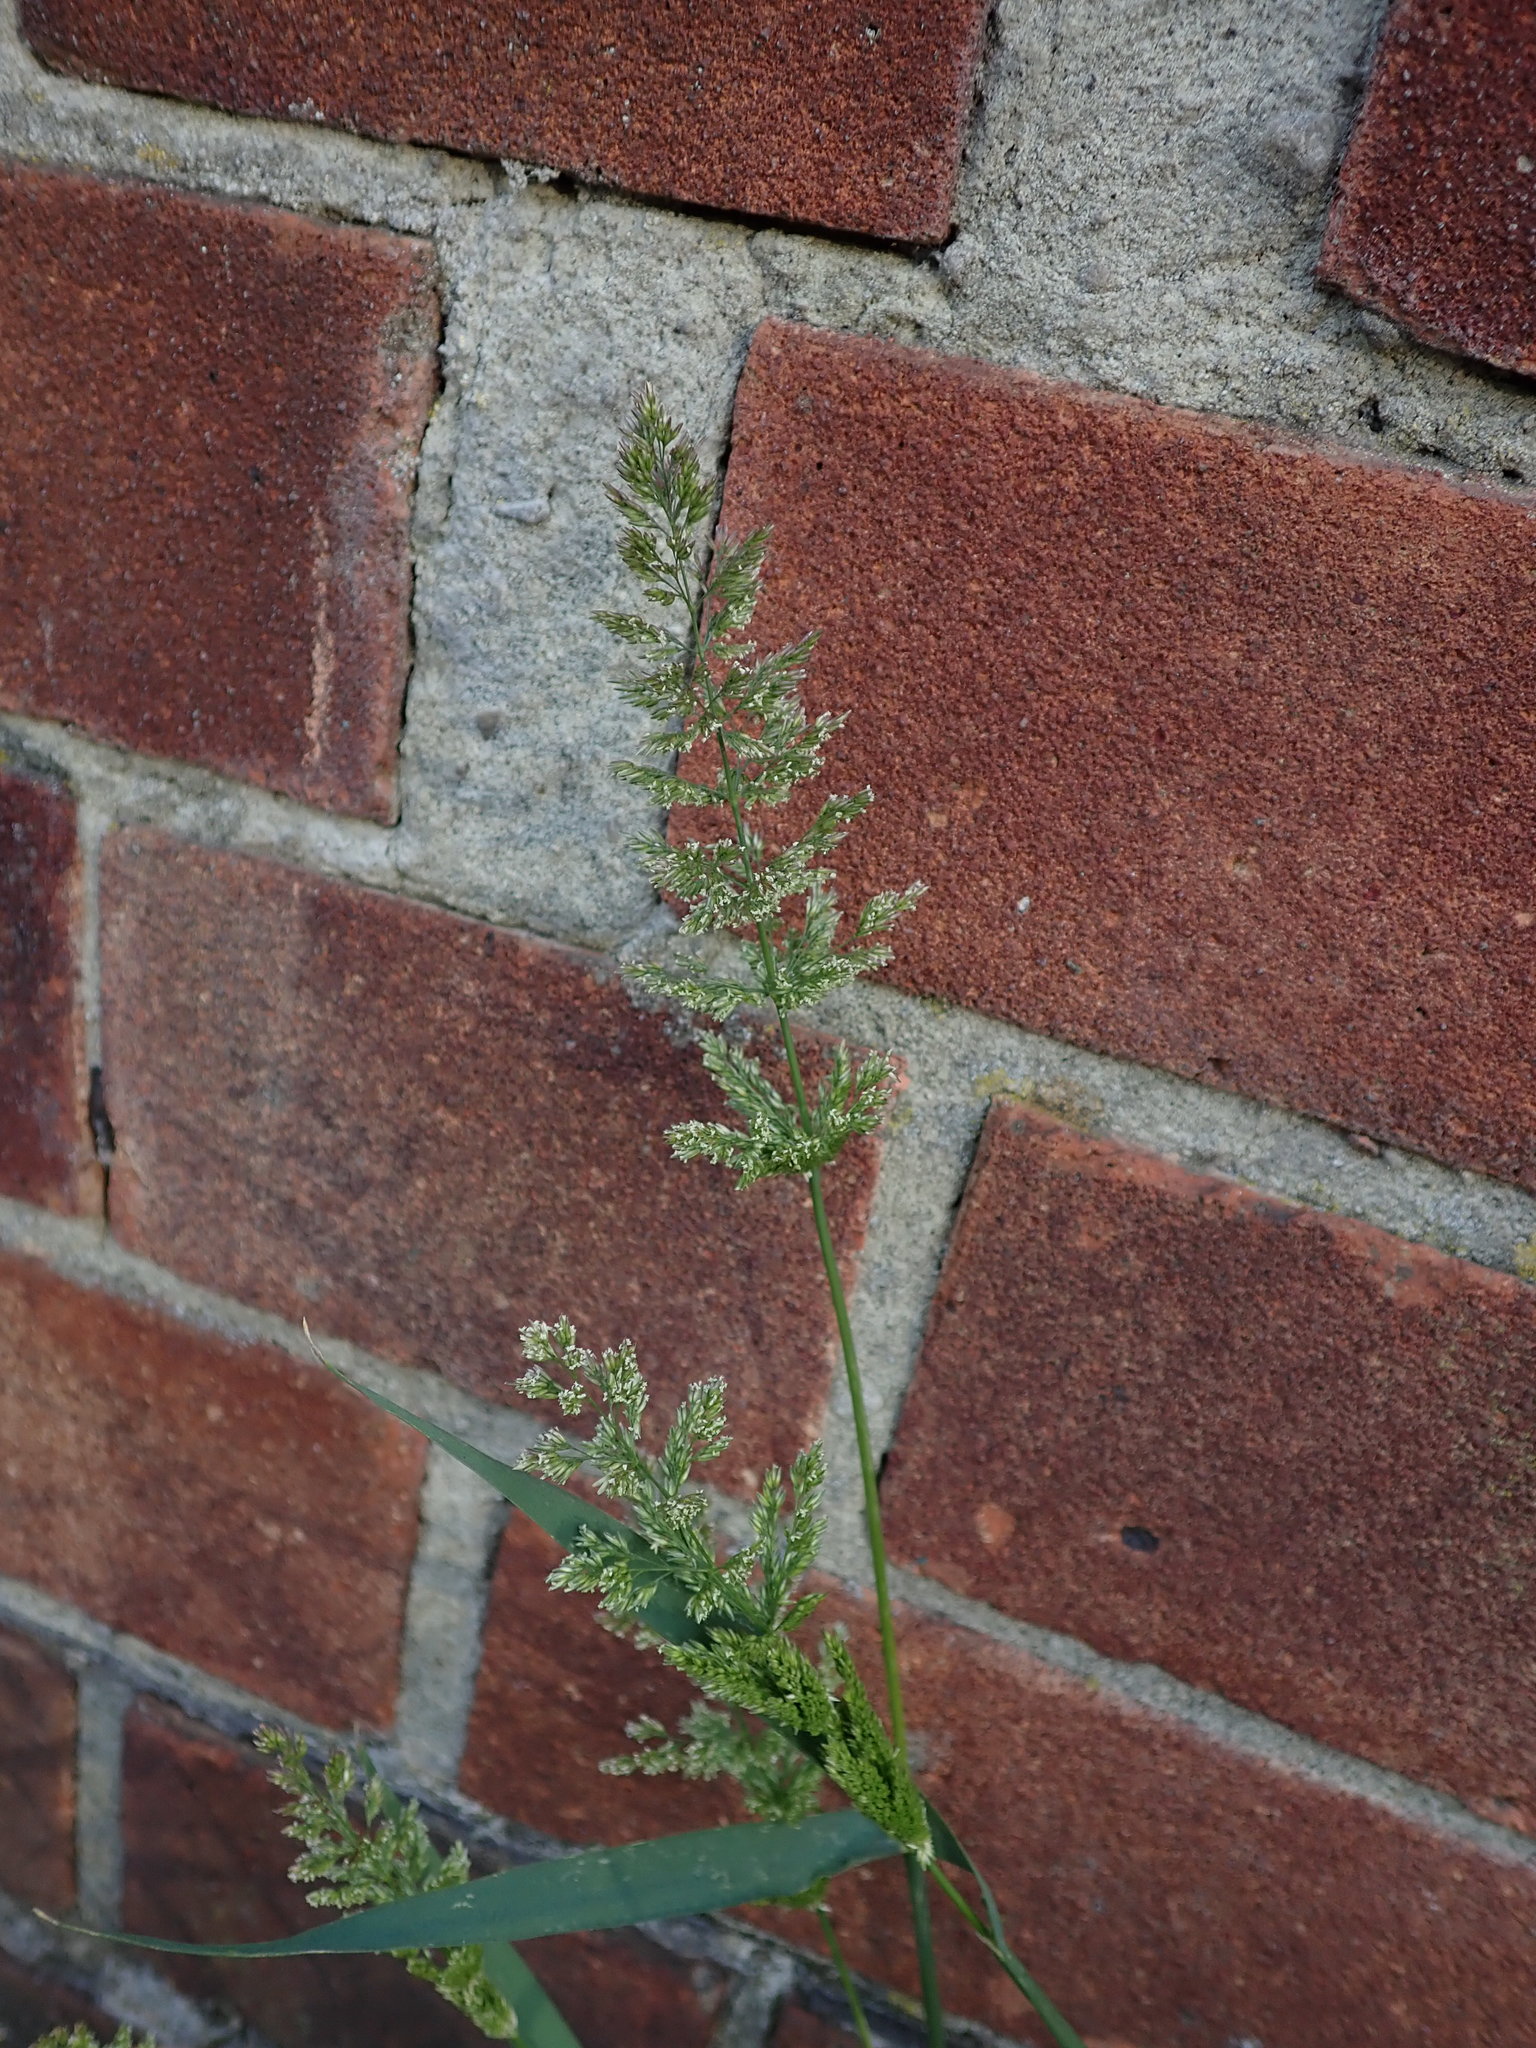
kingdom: Plantae
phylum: Tracheophyta
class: Liliopsida
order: Poales
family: Poaceae
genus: Polypogon
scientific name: Polypogon viridis
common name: Water bent
